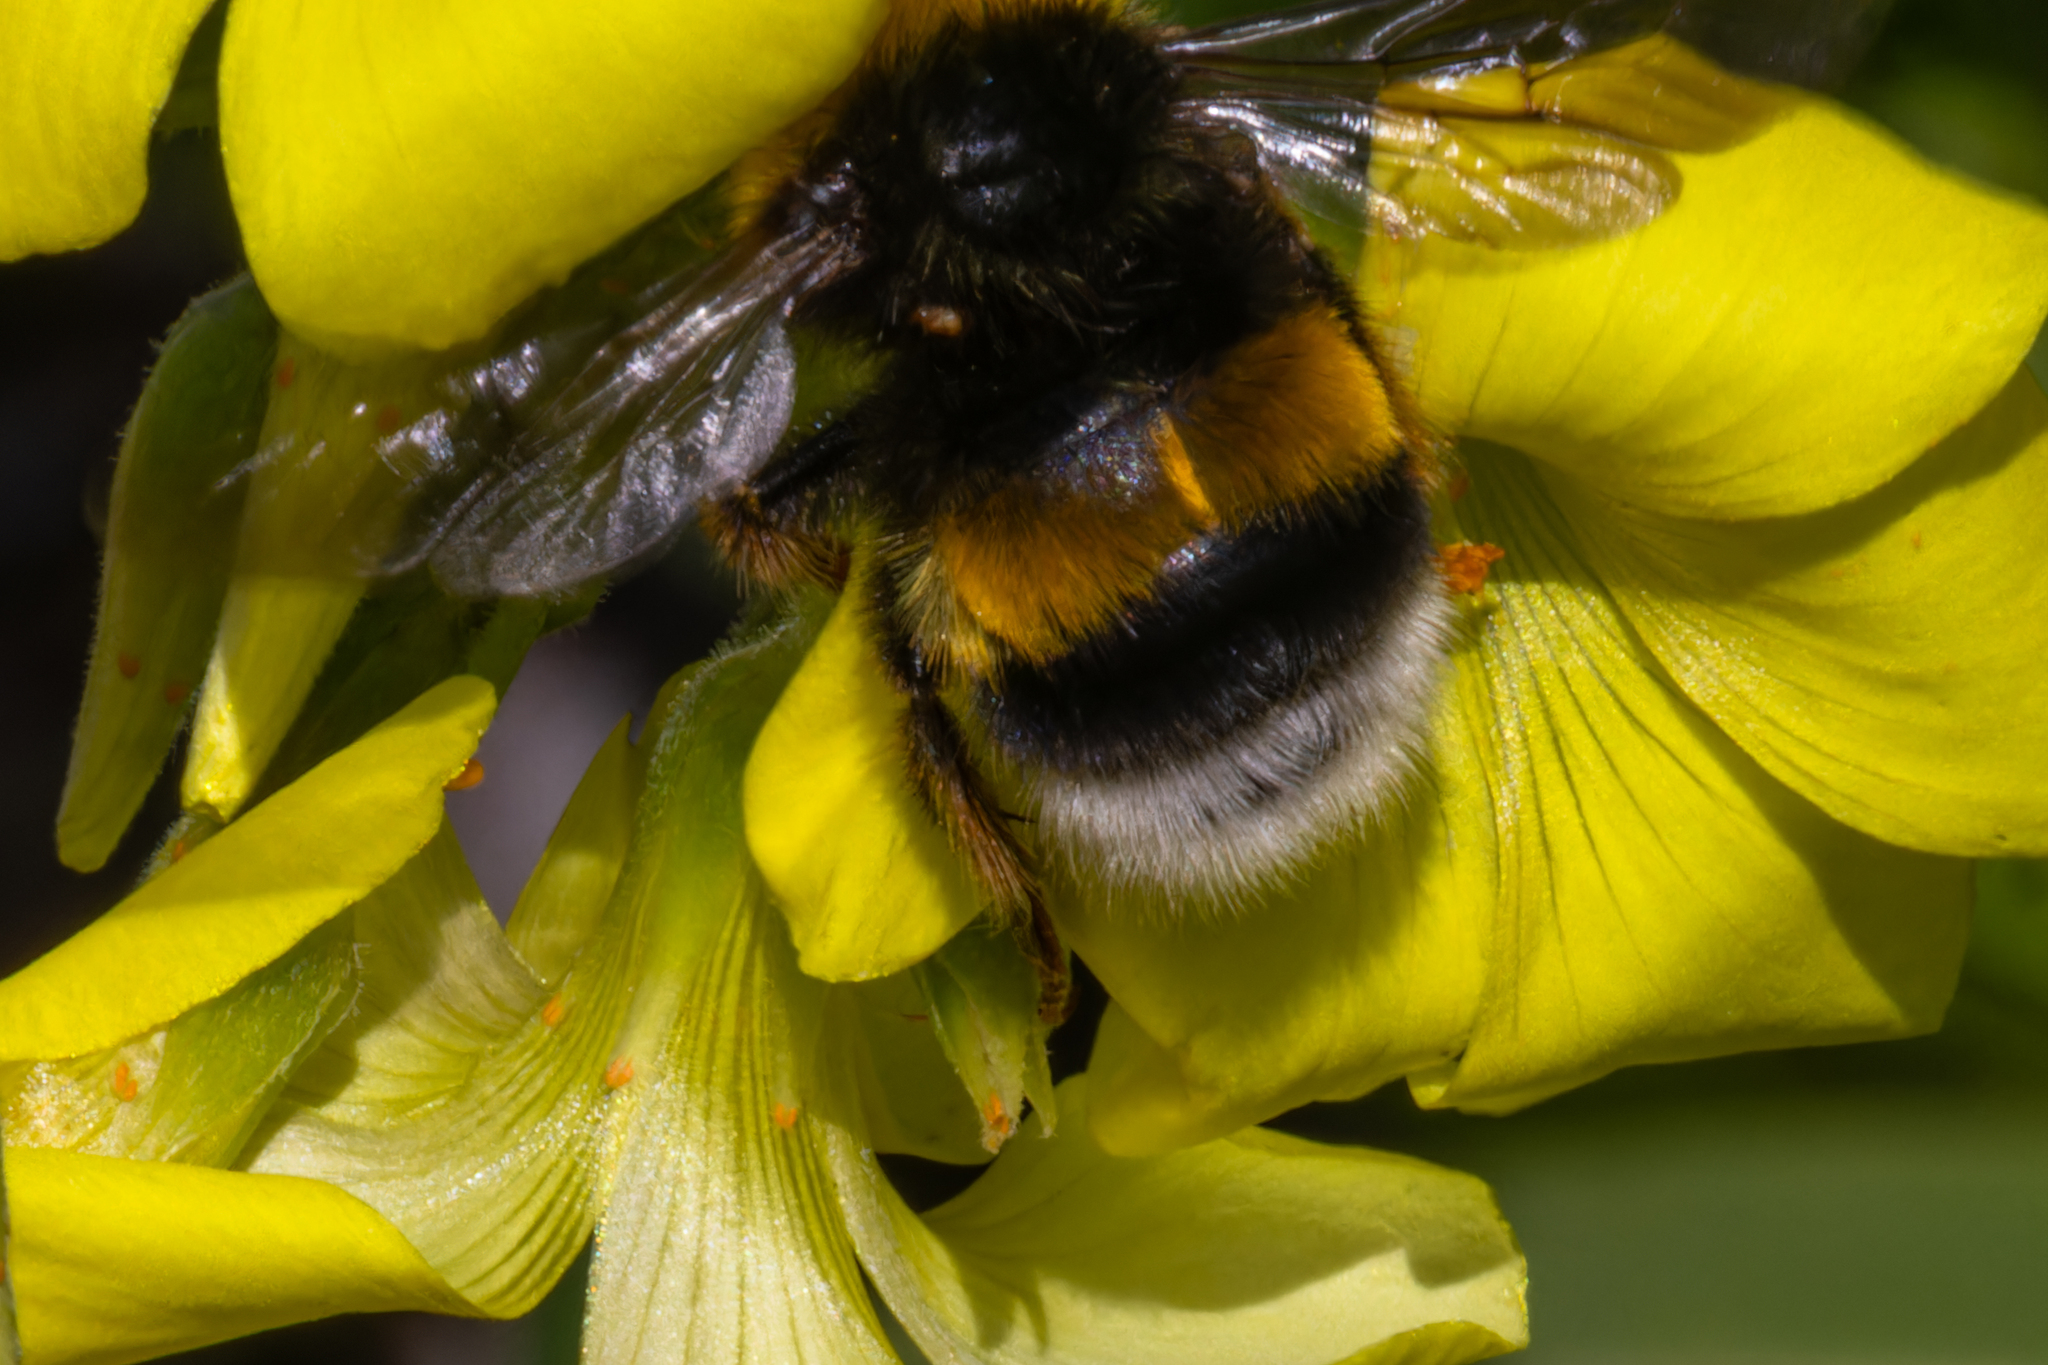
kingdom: Animalia
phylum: Arthropoda
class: Insecta
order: Hymenoptera
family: Apidae
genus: Bombus
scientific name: Bombus terrestris
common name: Buff-tailed bumblebee
